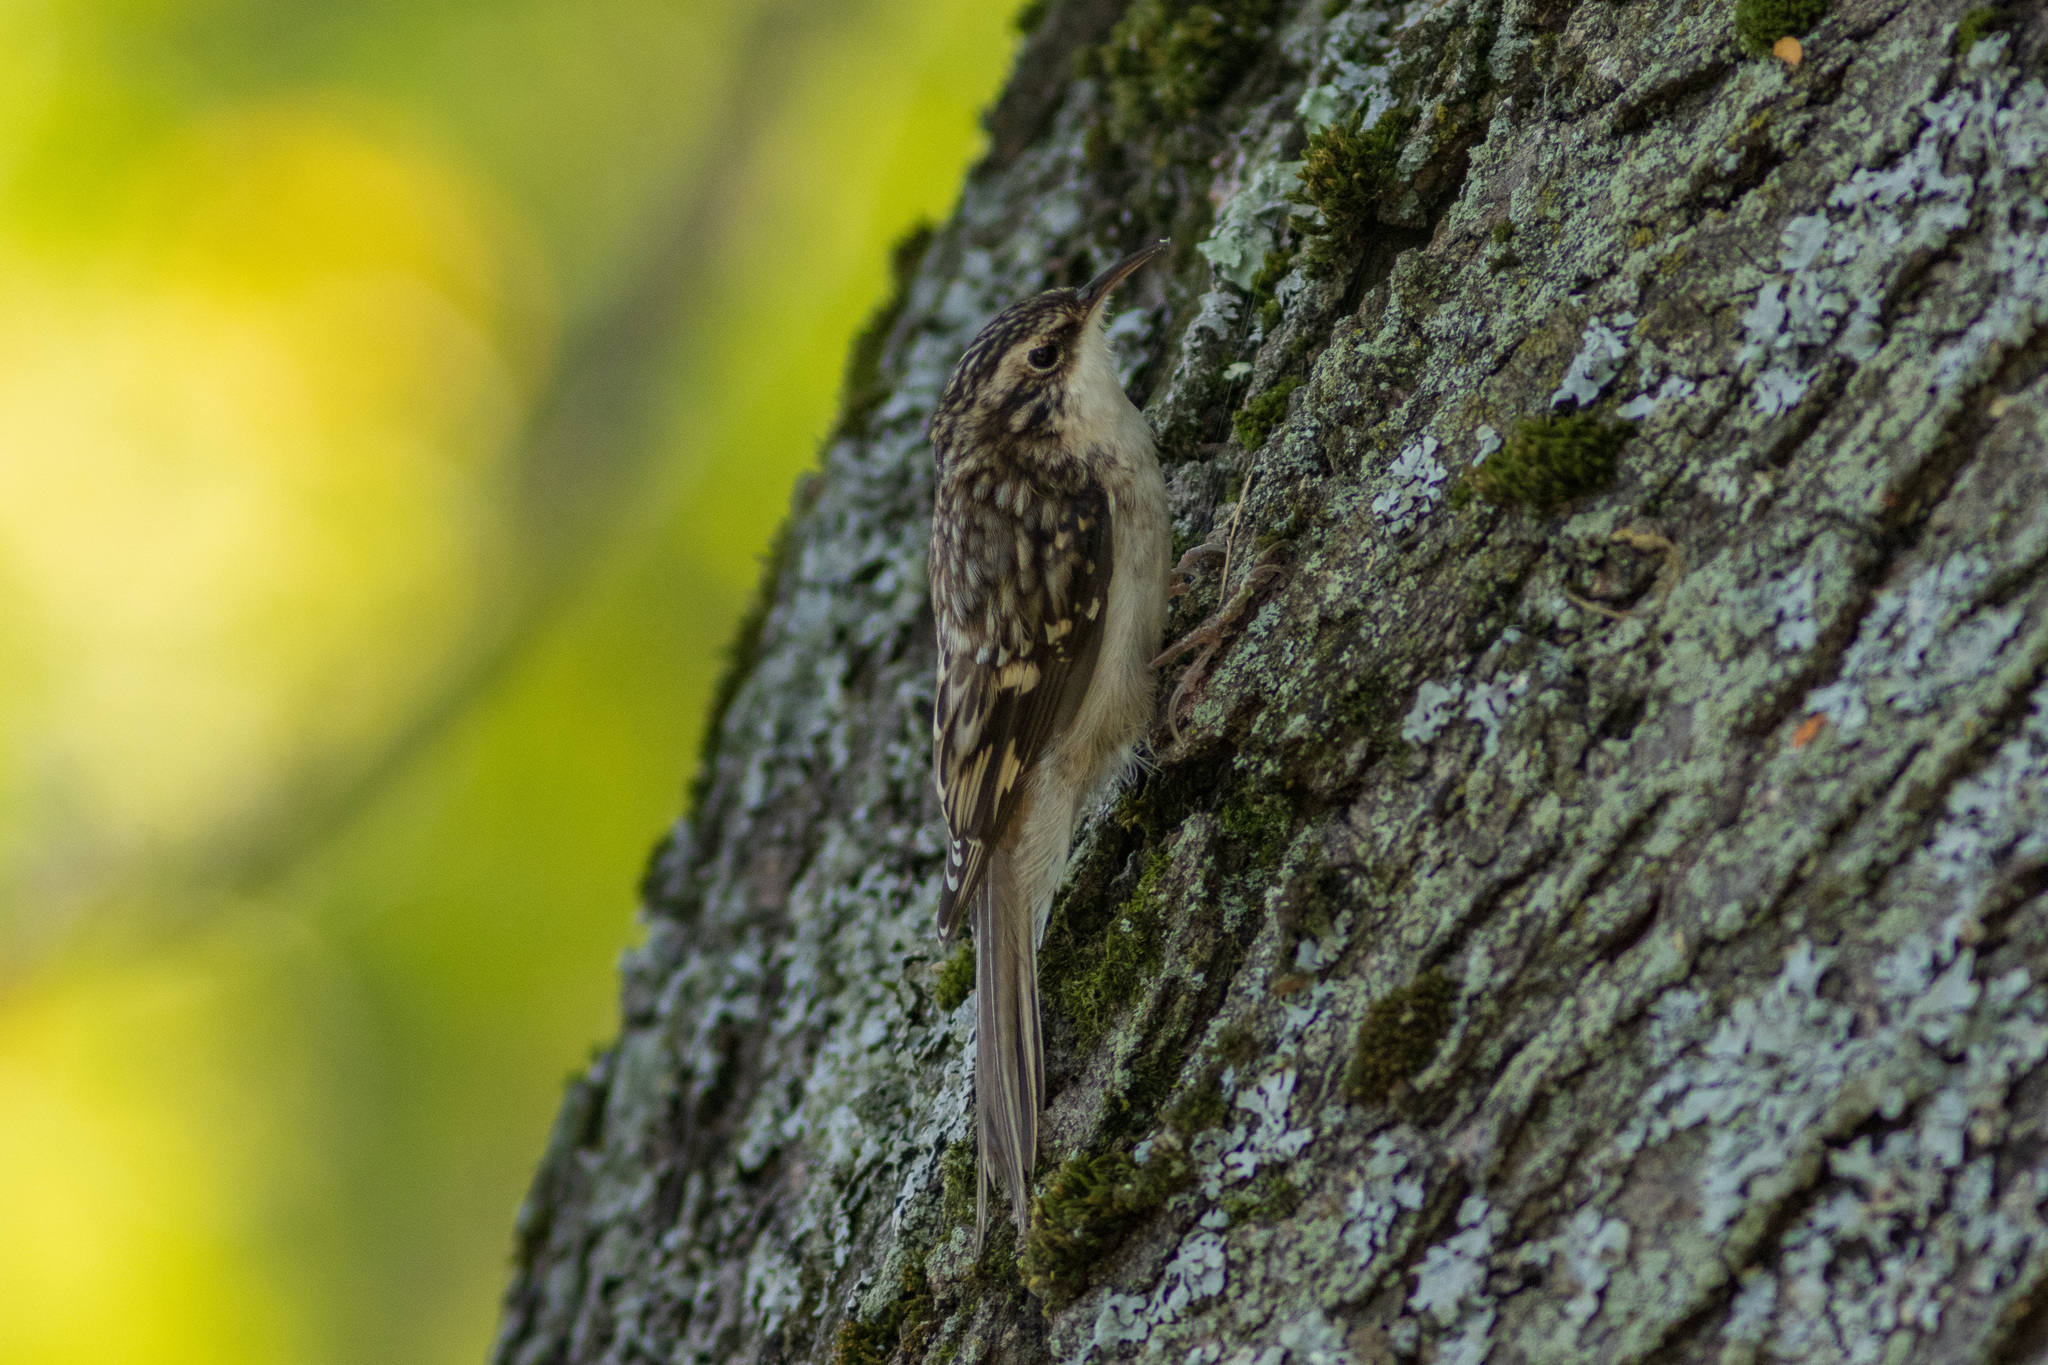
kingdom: Animalia
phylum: Chordata
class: Aves
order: Passeriformes
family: Certhiidae
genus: Certhia
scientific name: Certhia americana
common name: Brown creeper
